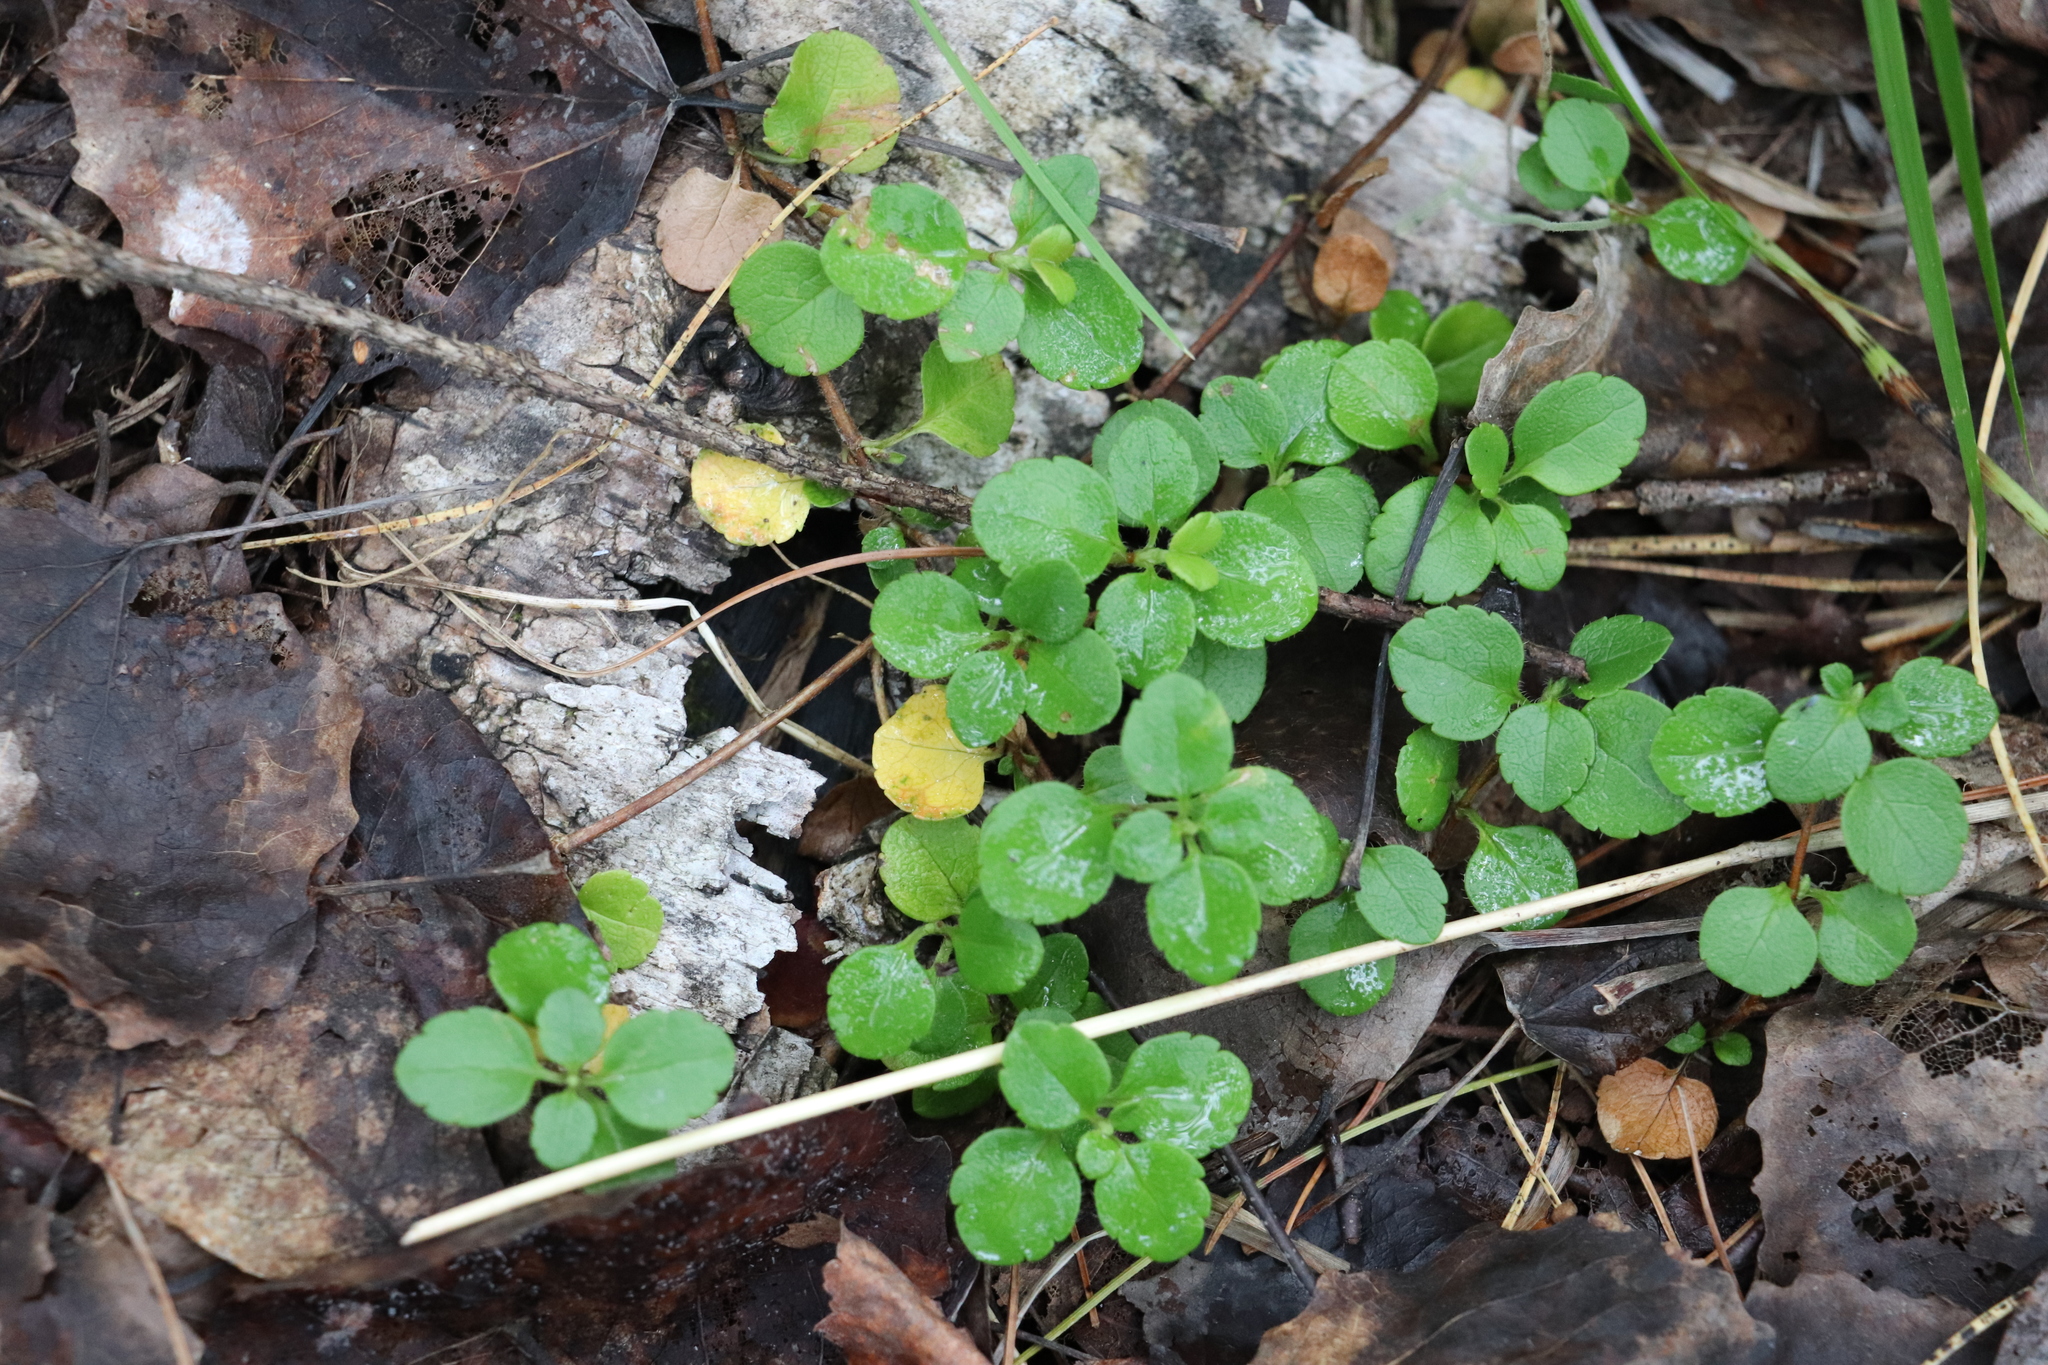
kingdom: Plantae
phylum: Tracheophyta
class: Magnoliopsida
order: Dipsacales
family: Caprifoliaceae
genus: Linnaea
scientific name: Linnaea borealis
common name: Twinflower
